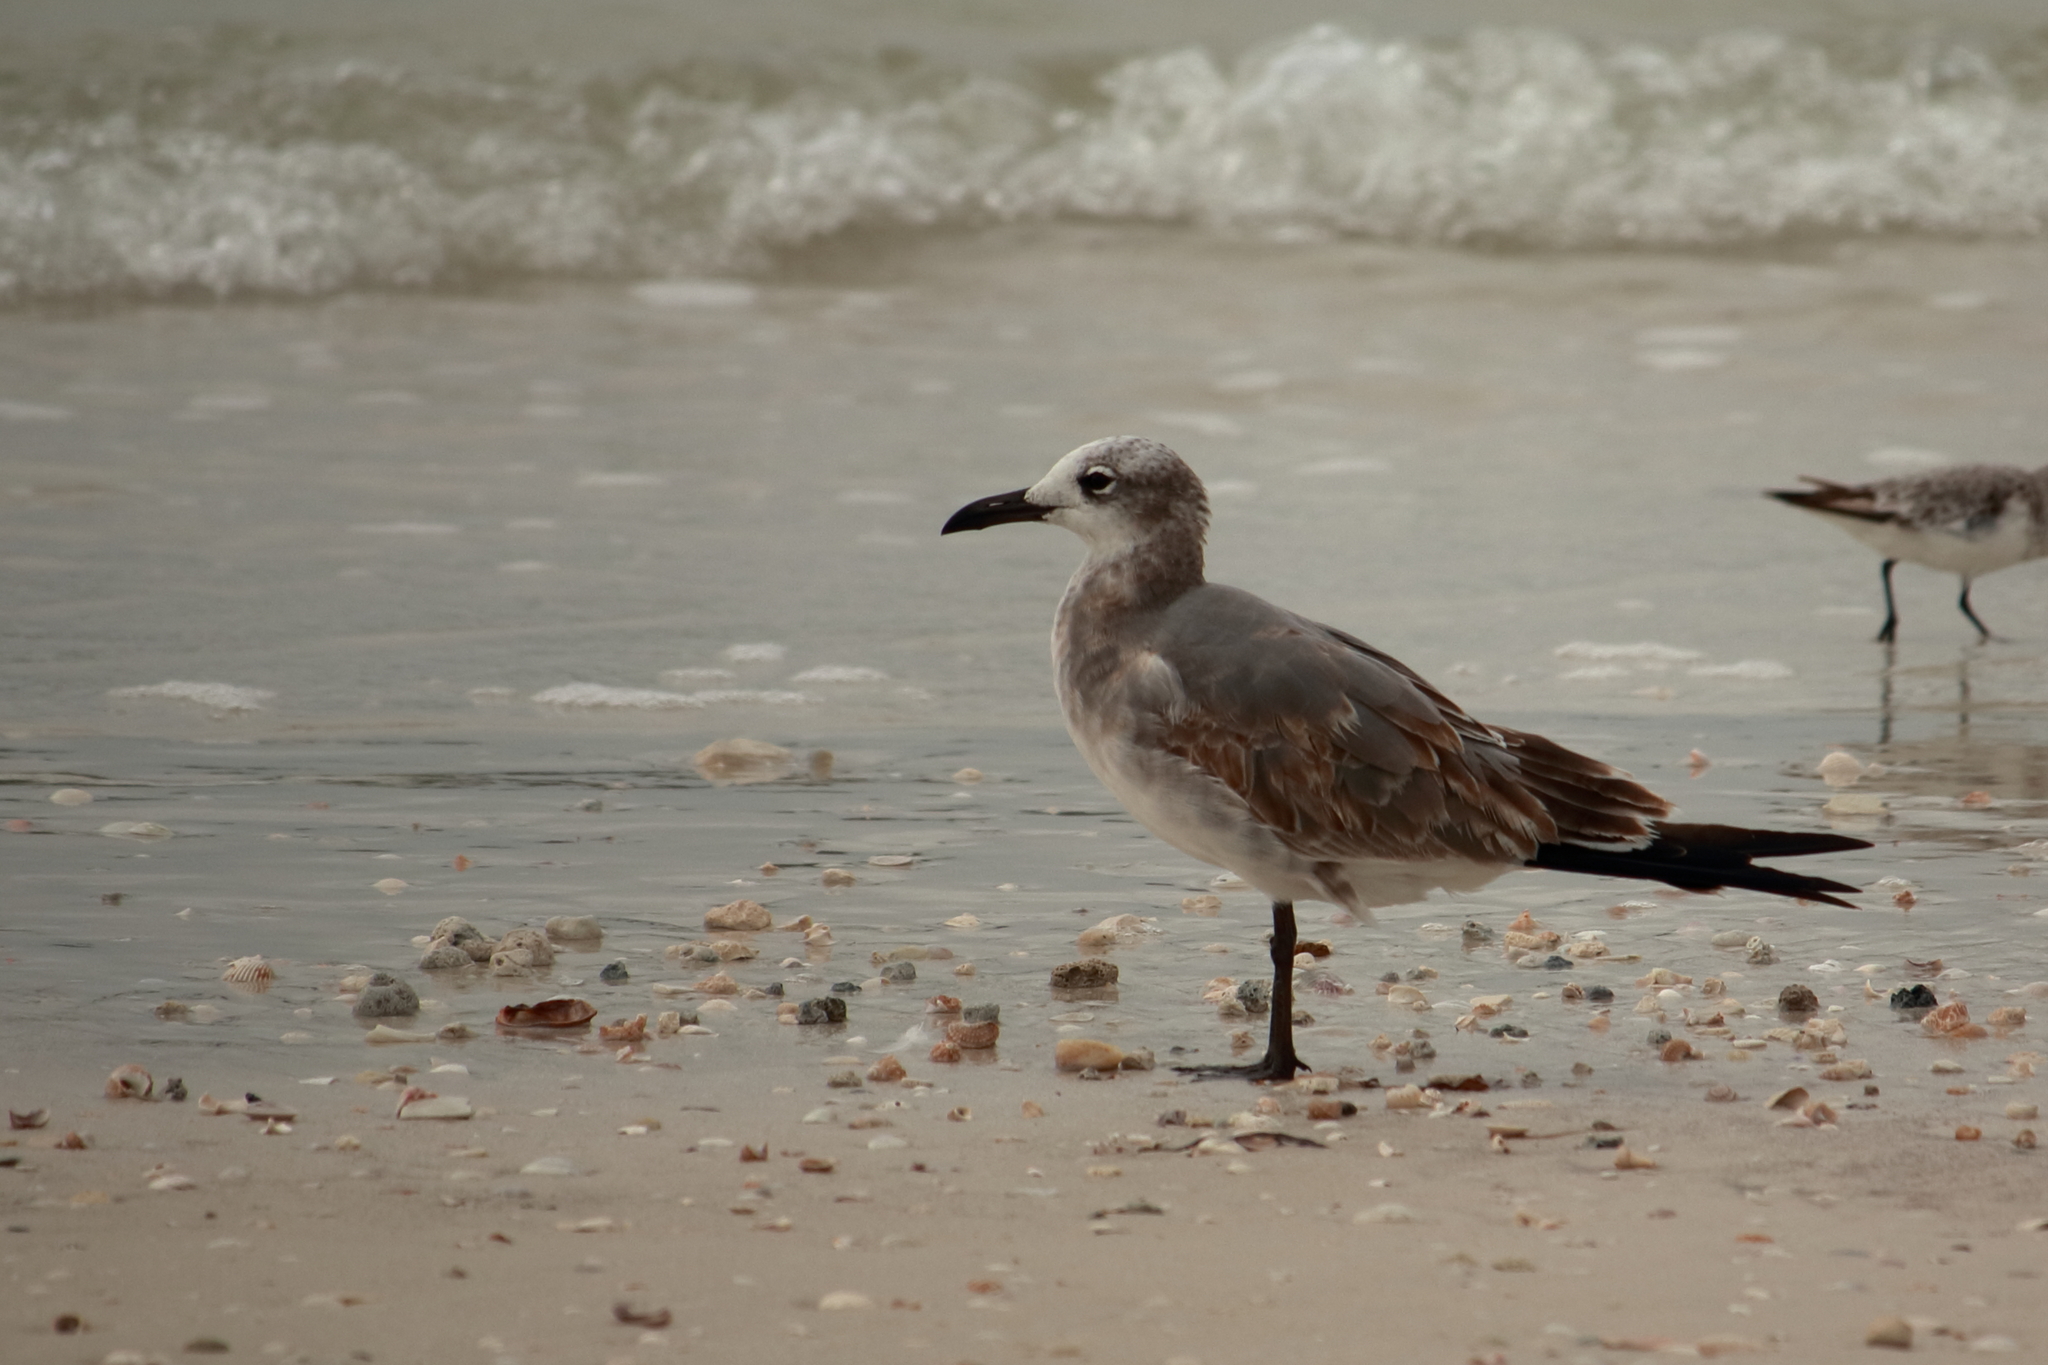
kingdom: Animalia
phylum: Chordata
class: Aves
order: Charadriiformes
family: Laridae
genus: Leucophaeus
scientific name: Leucophaeus atricilla
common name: Laughing gull
